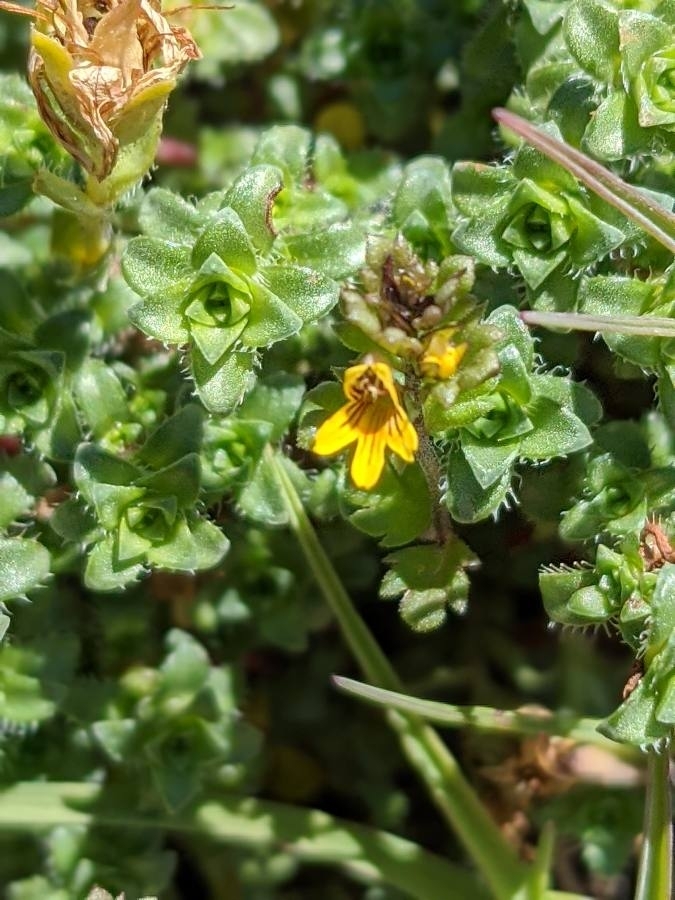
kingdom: Plantae
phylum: Tracheophyta
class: Magnoliopsida
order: Lamiales
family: Orobanchaceae
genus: Euphrasia
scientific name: Euphrasia minima
